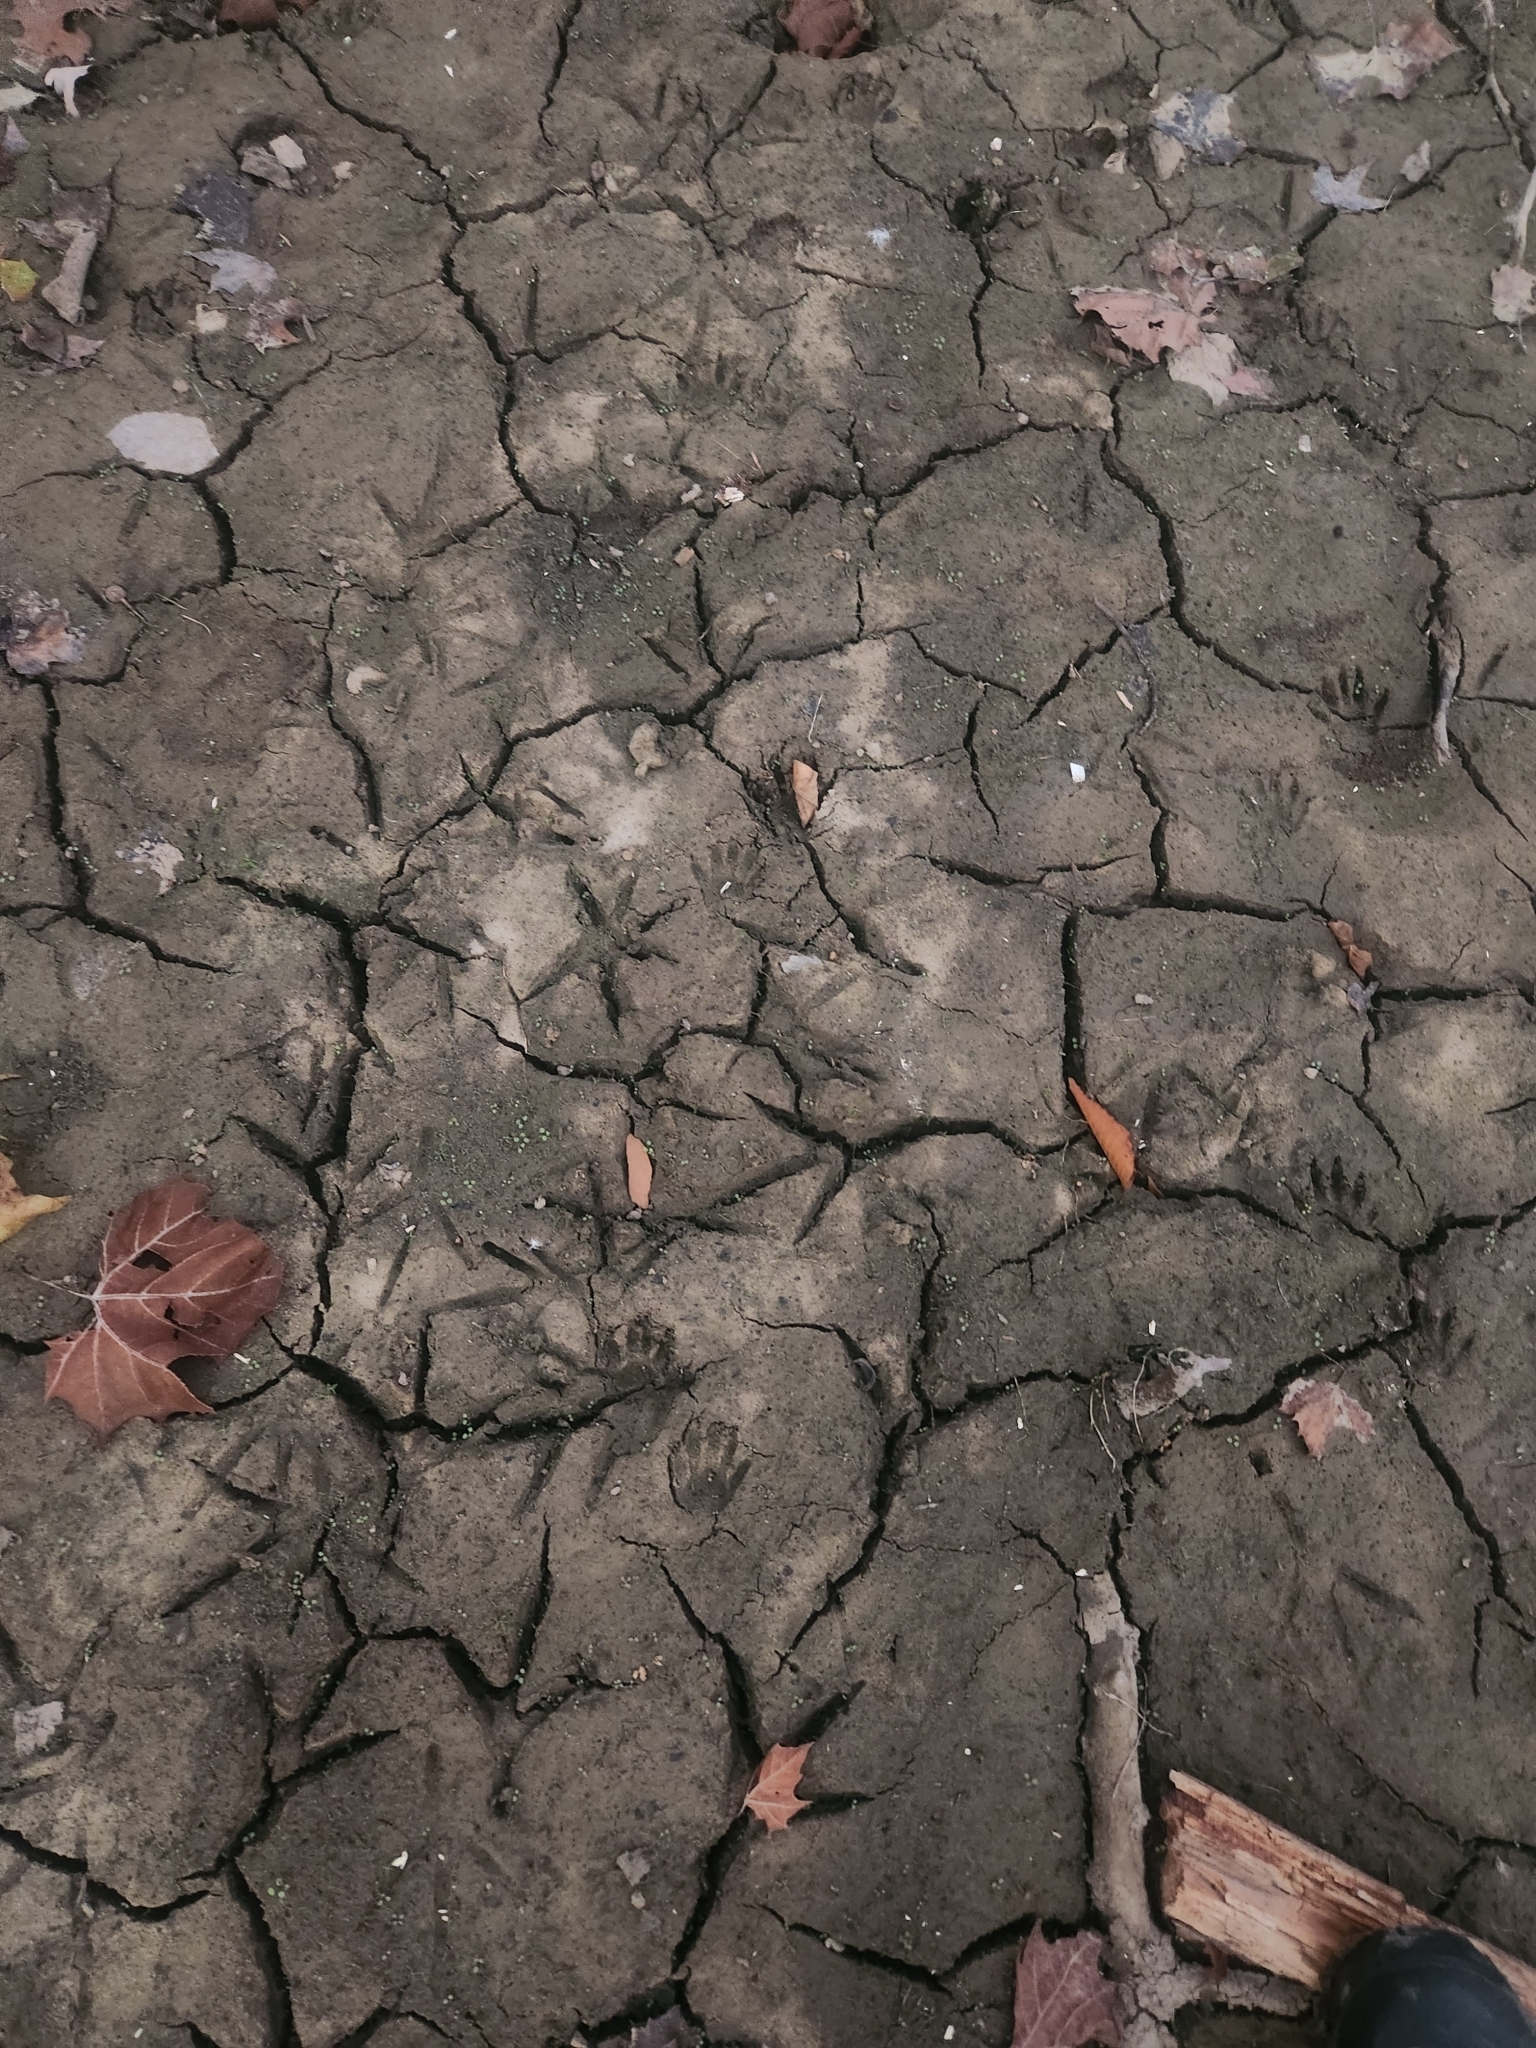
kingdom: Animalia
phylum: Chordata
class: Mammalia
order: Carnivora
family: Procyonidae
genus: Procyon
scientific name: Procyon lotor
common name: Raccoon
